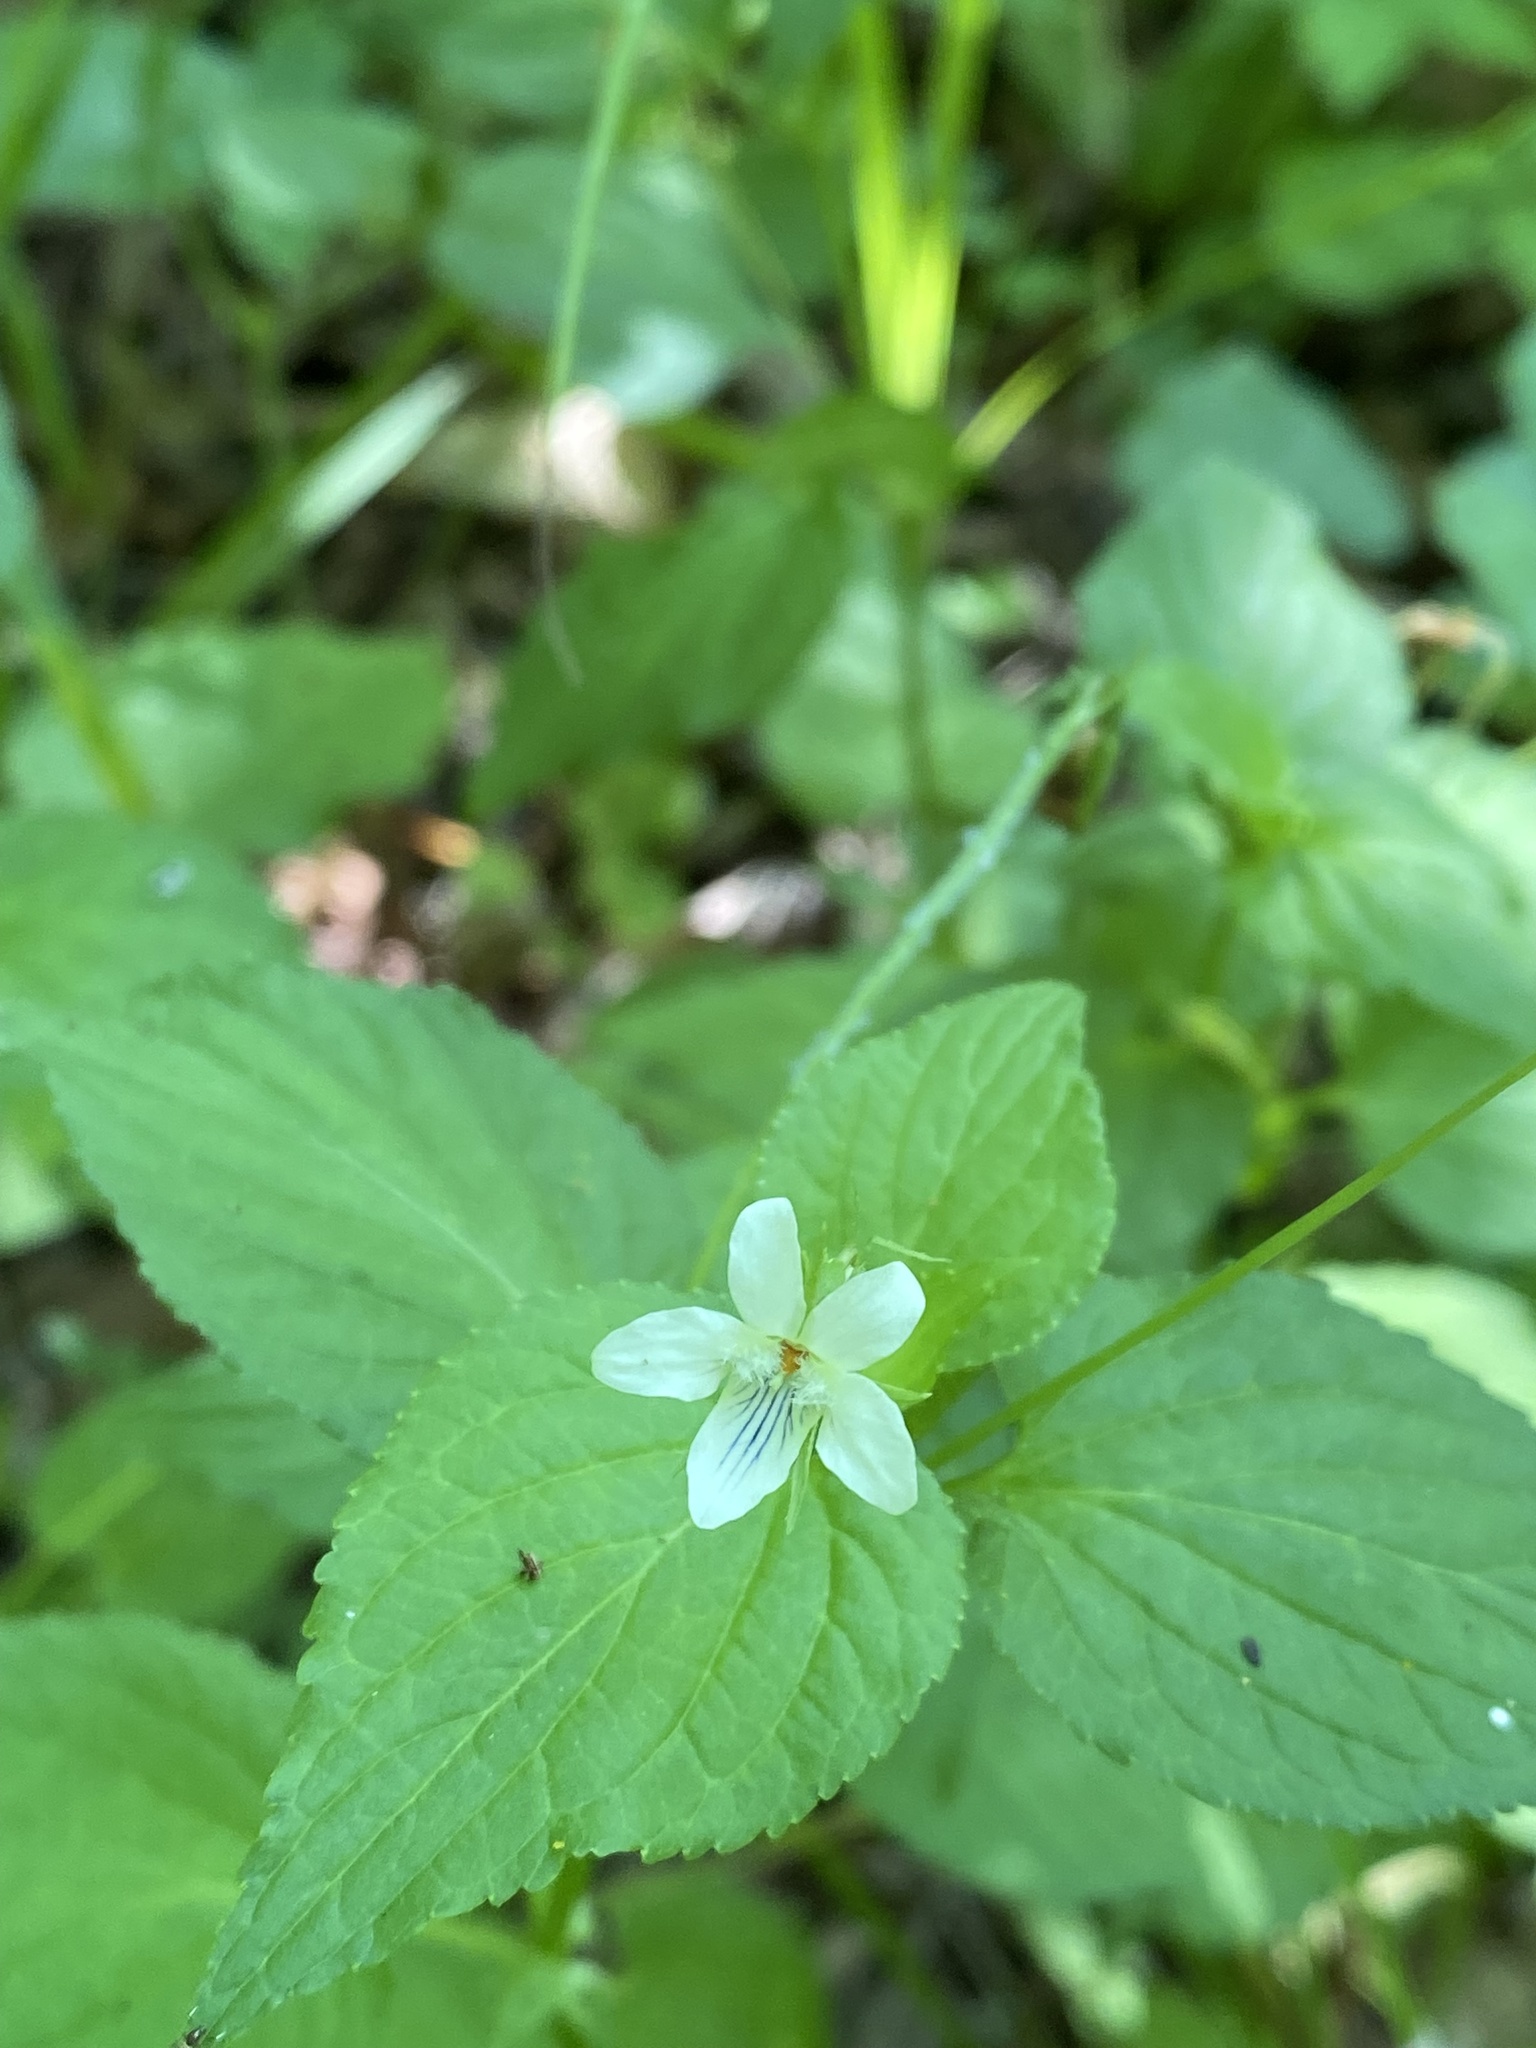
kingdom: Plantae
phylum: Tracheophyta
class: Magnoliopsida
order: Malpighiales
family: Violaceae
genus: Viola
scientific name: Viola striata
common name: Cream violet
